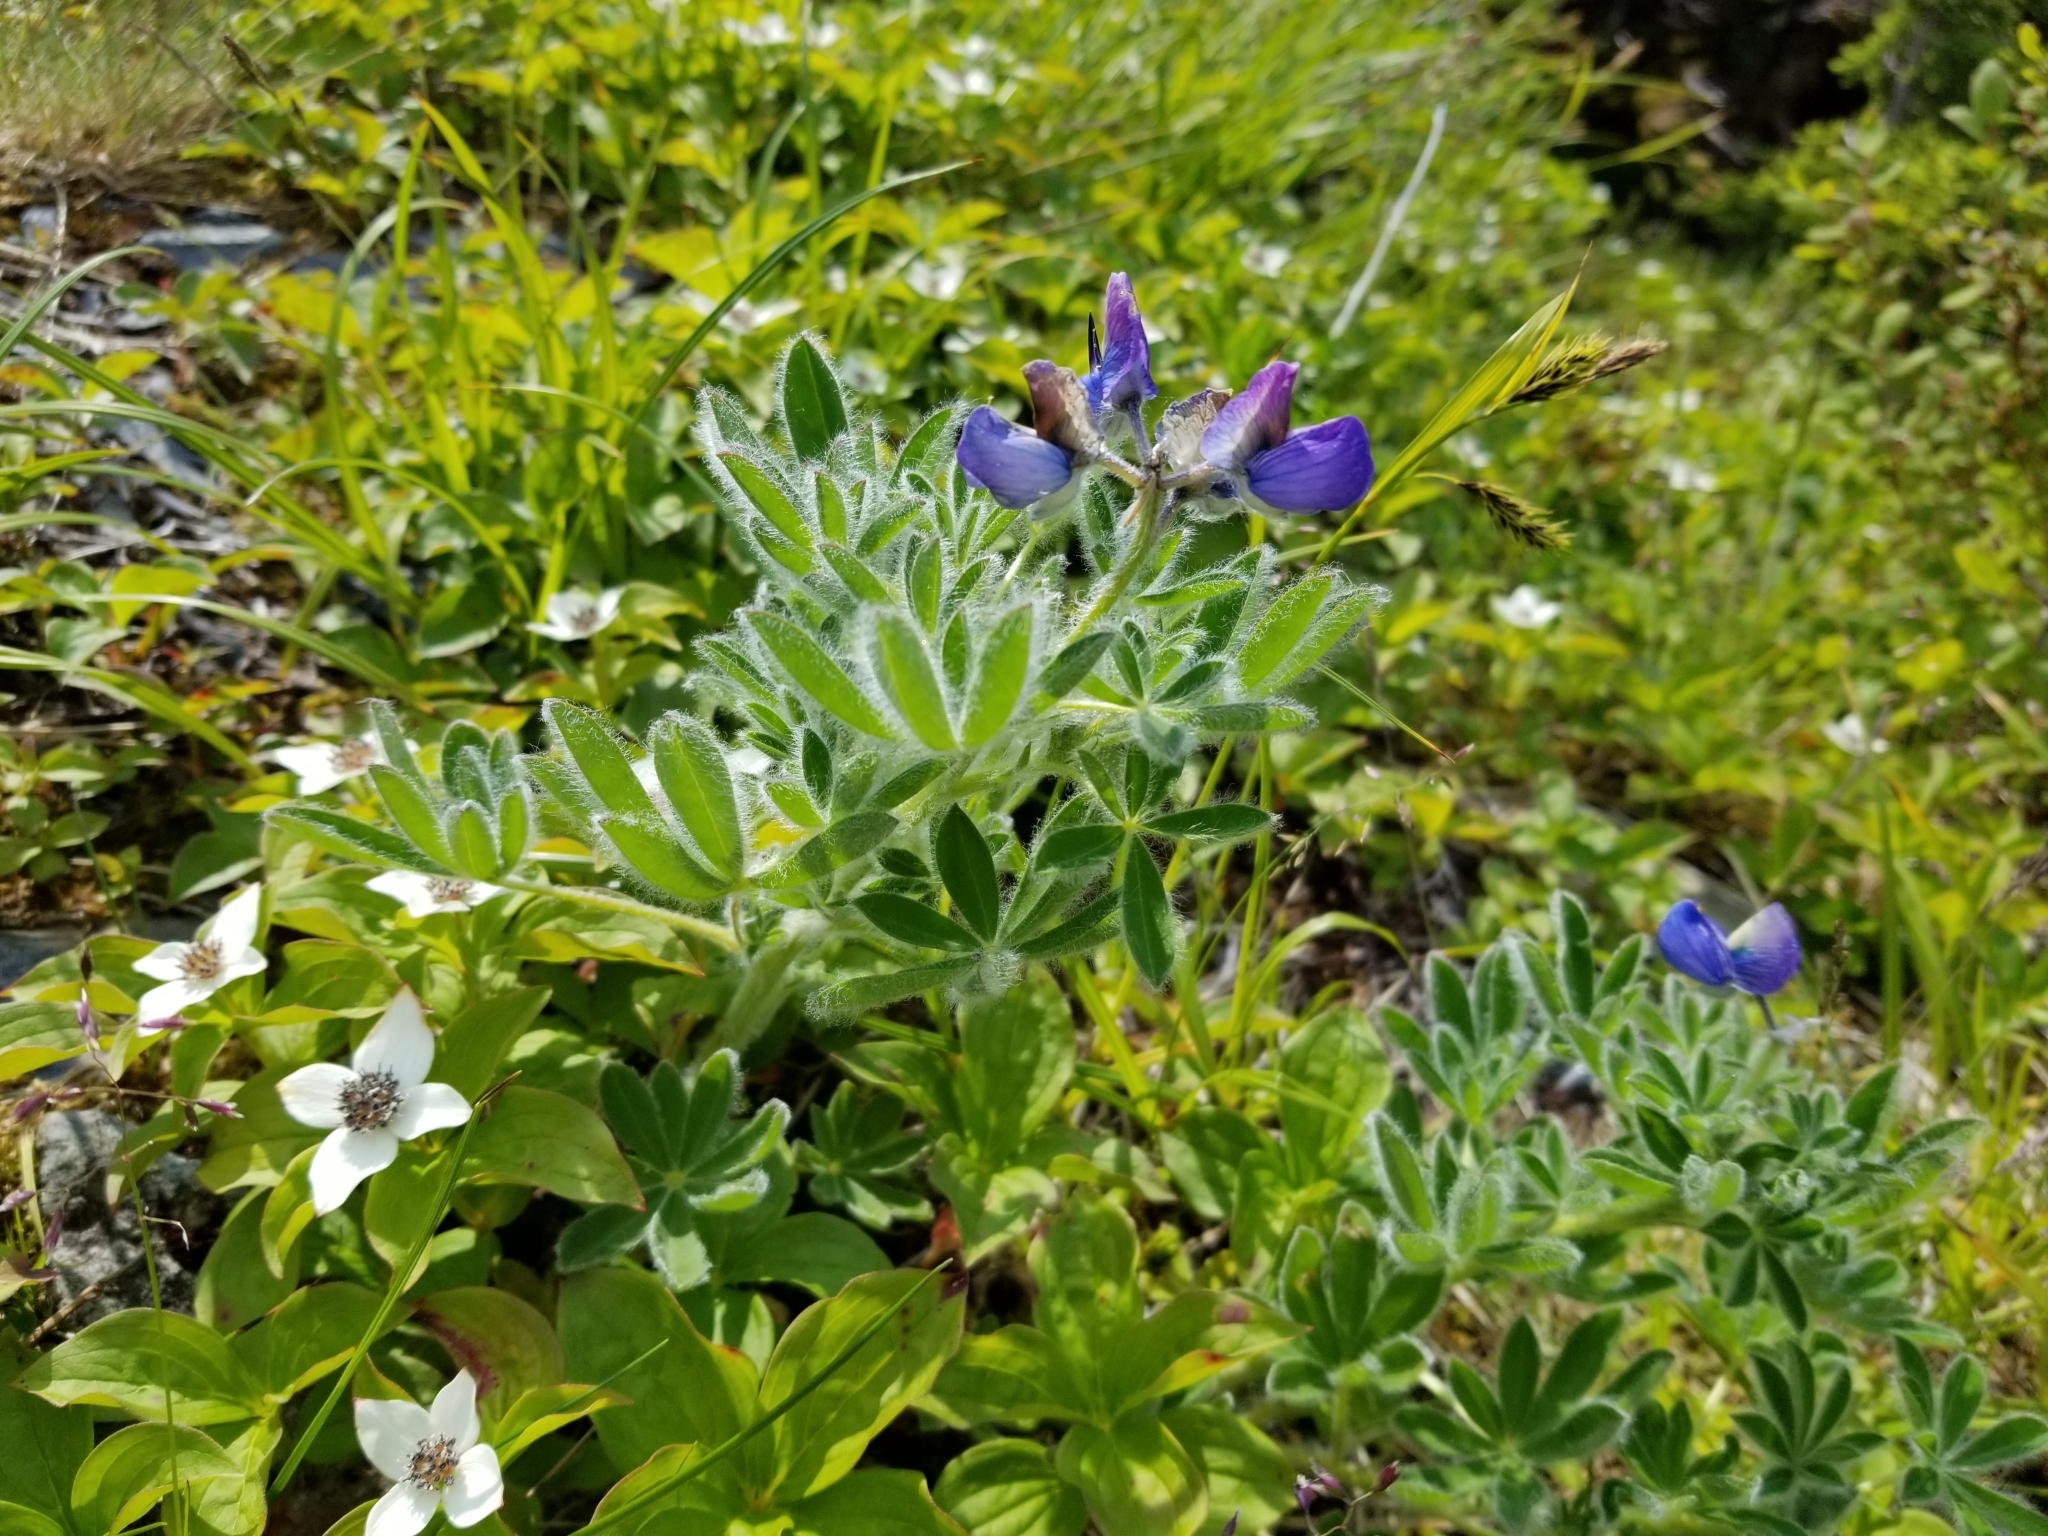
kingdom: Plantae
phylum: Tracheophyta
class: Magnoliopsida
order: Fabales
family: Fabaceae
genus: Lupinus
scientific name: Lupinus nootkatensis
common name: Nootka lupine
